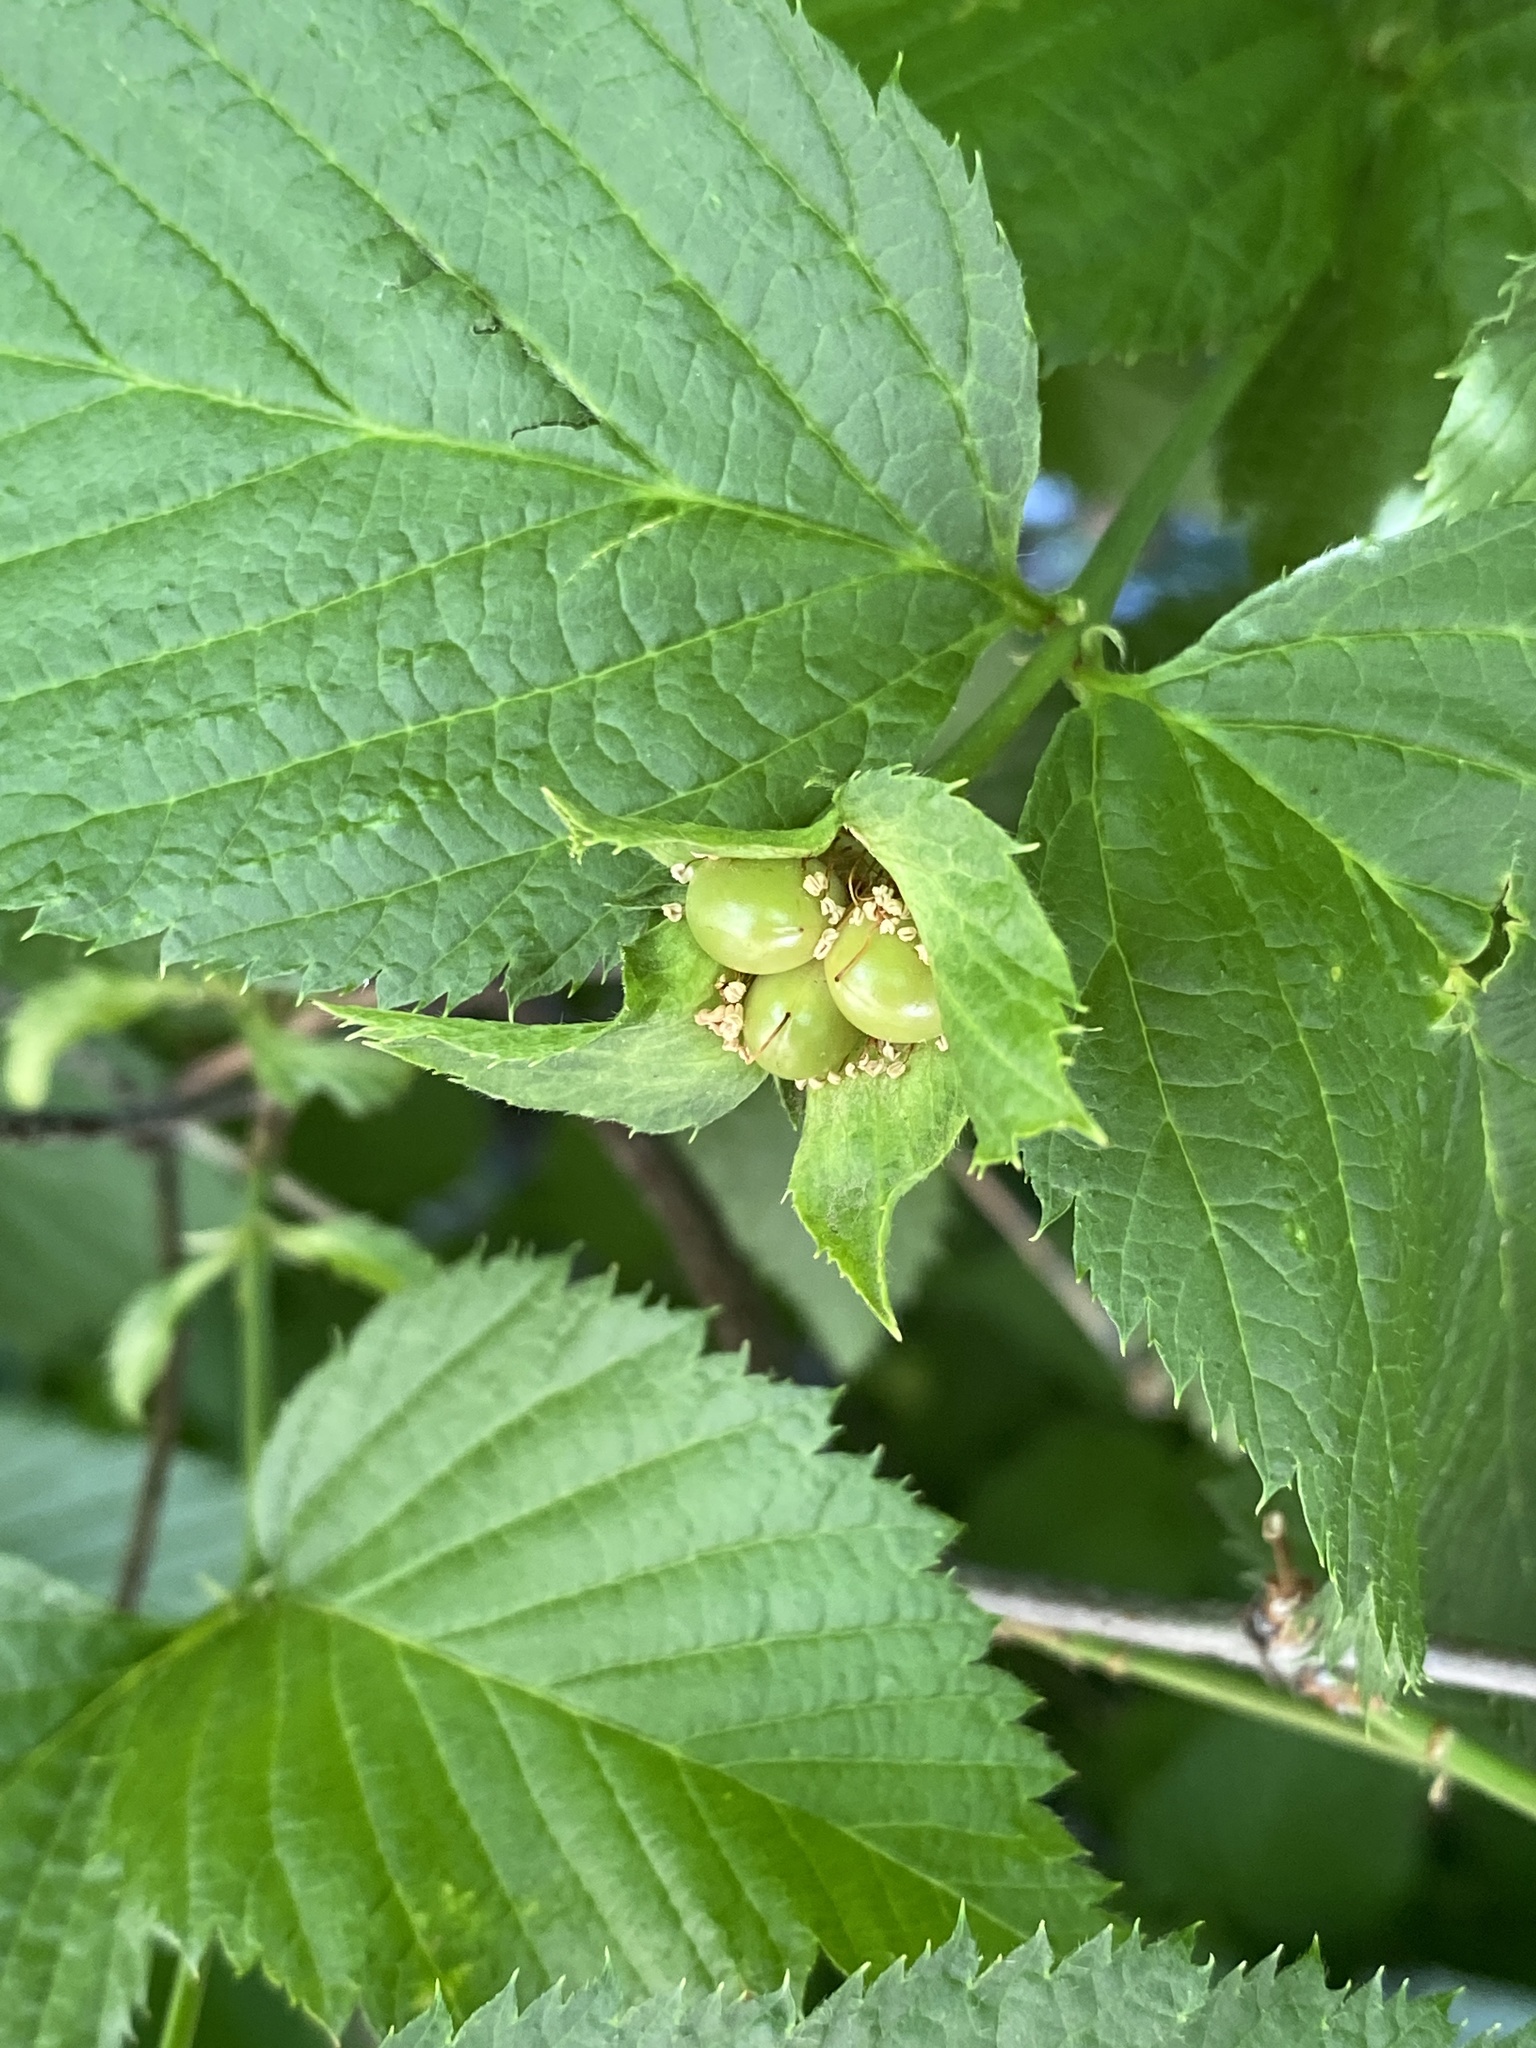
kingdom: Plantae
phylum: Tracheophyta
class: Magnoliopsida
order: Rosales
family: Rosaceae
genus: Rhodotypos
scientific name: Rhodotypos scandens
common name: Jetbead
